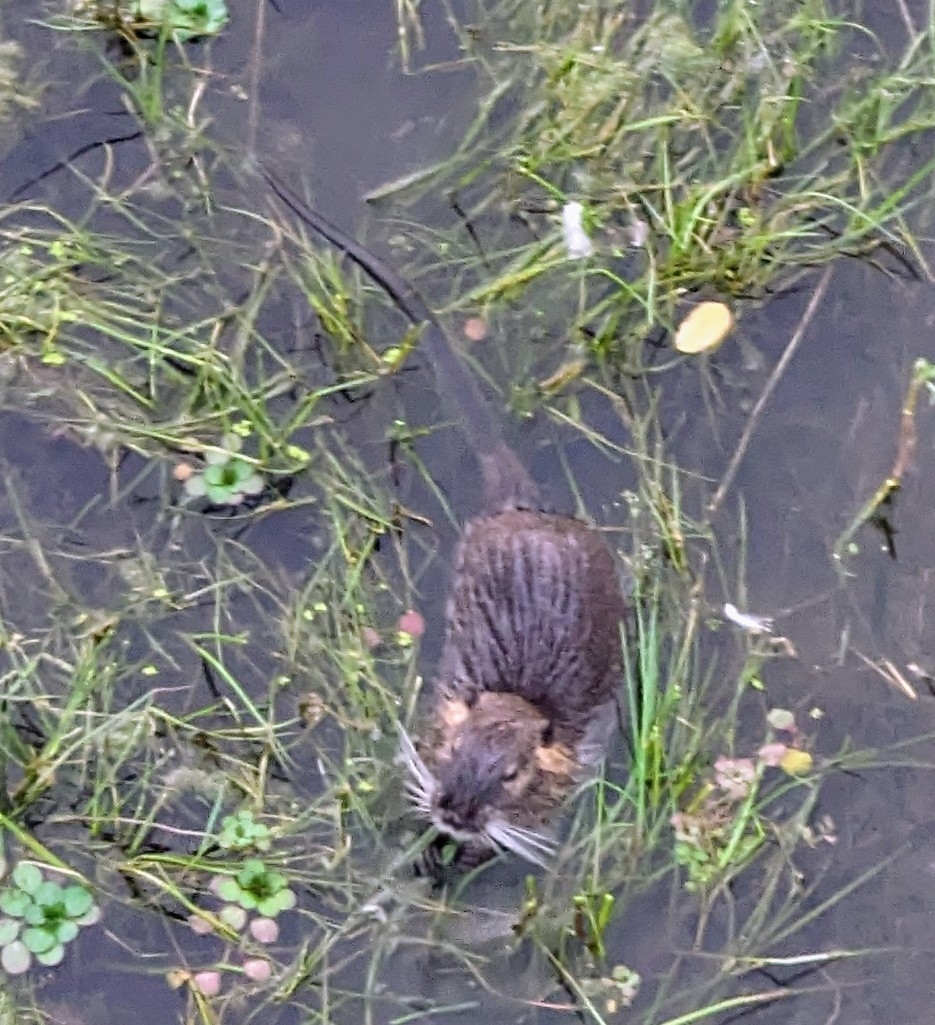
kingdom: Animalia
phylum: Chordata
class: Mammalia
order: Rodentia
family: Myocastoridae
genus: Myocastor
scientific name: Myocastor coypus
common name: Coypu
